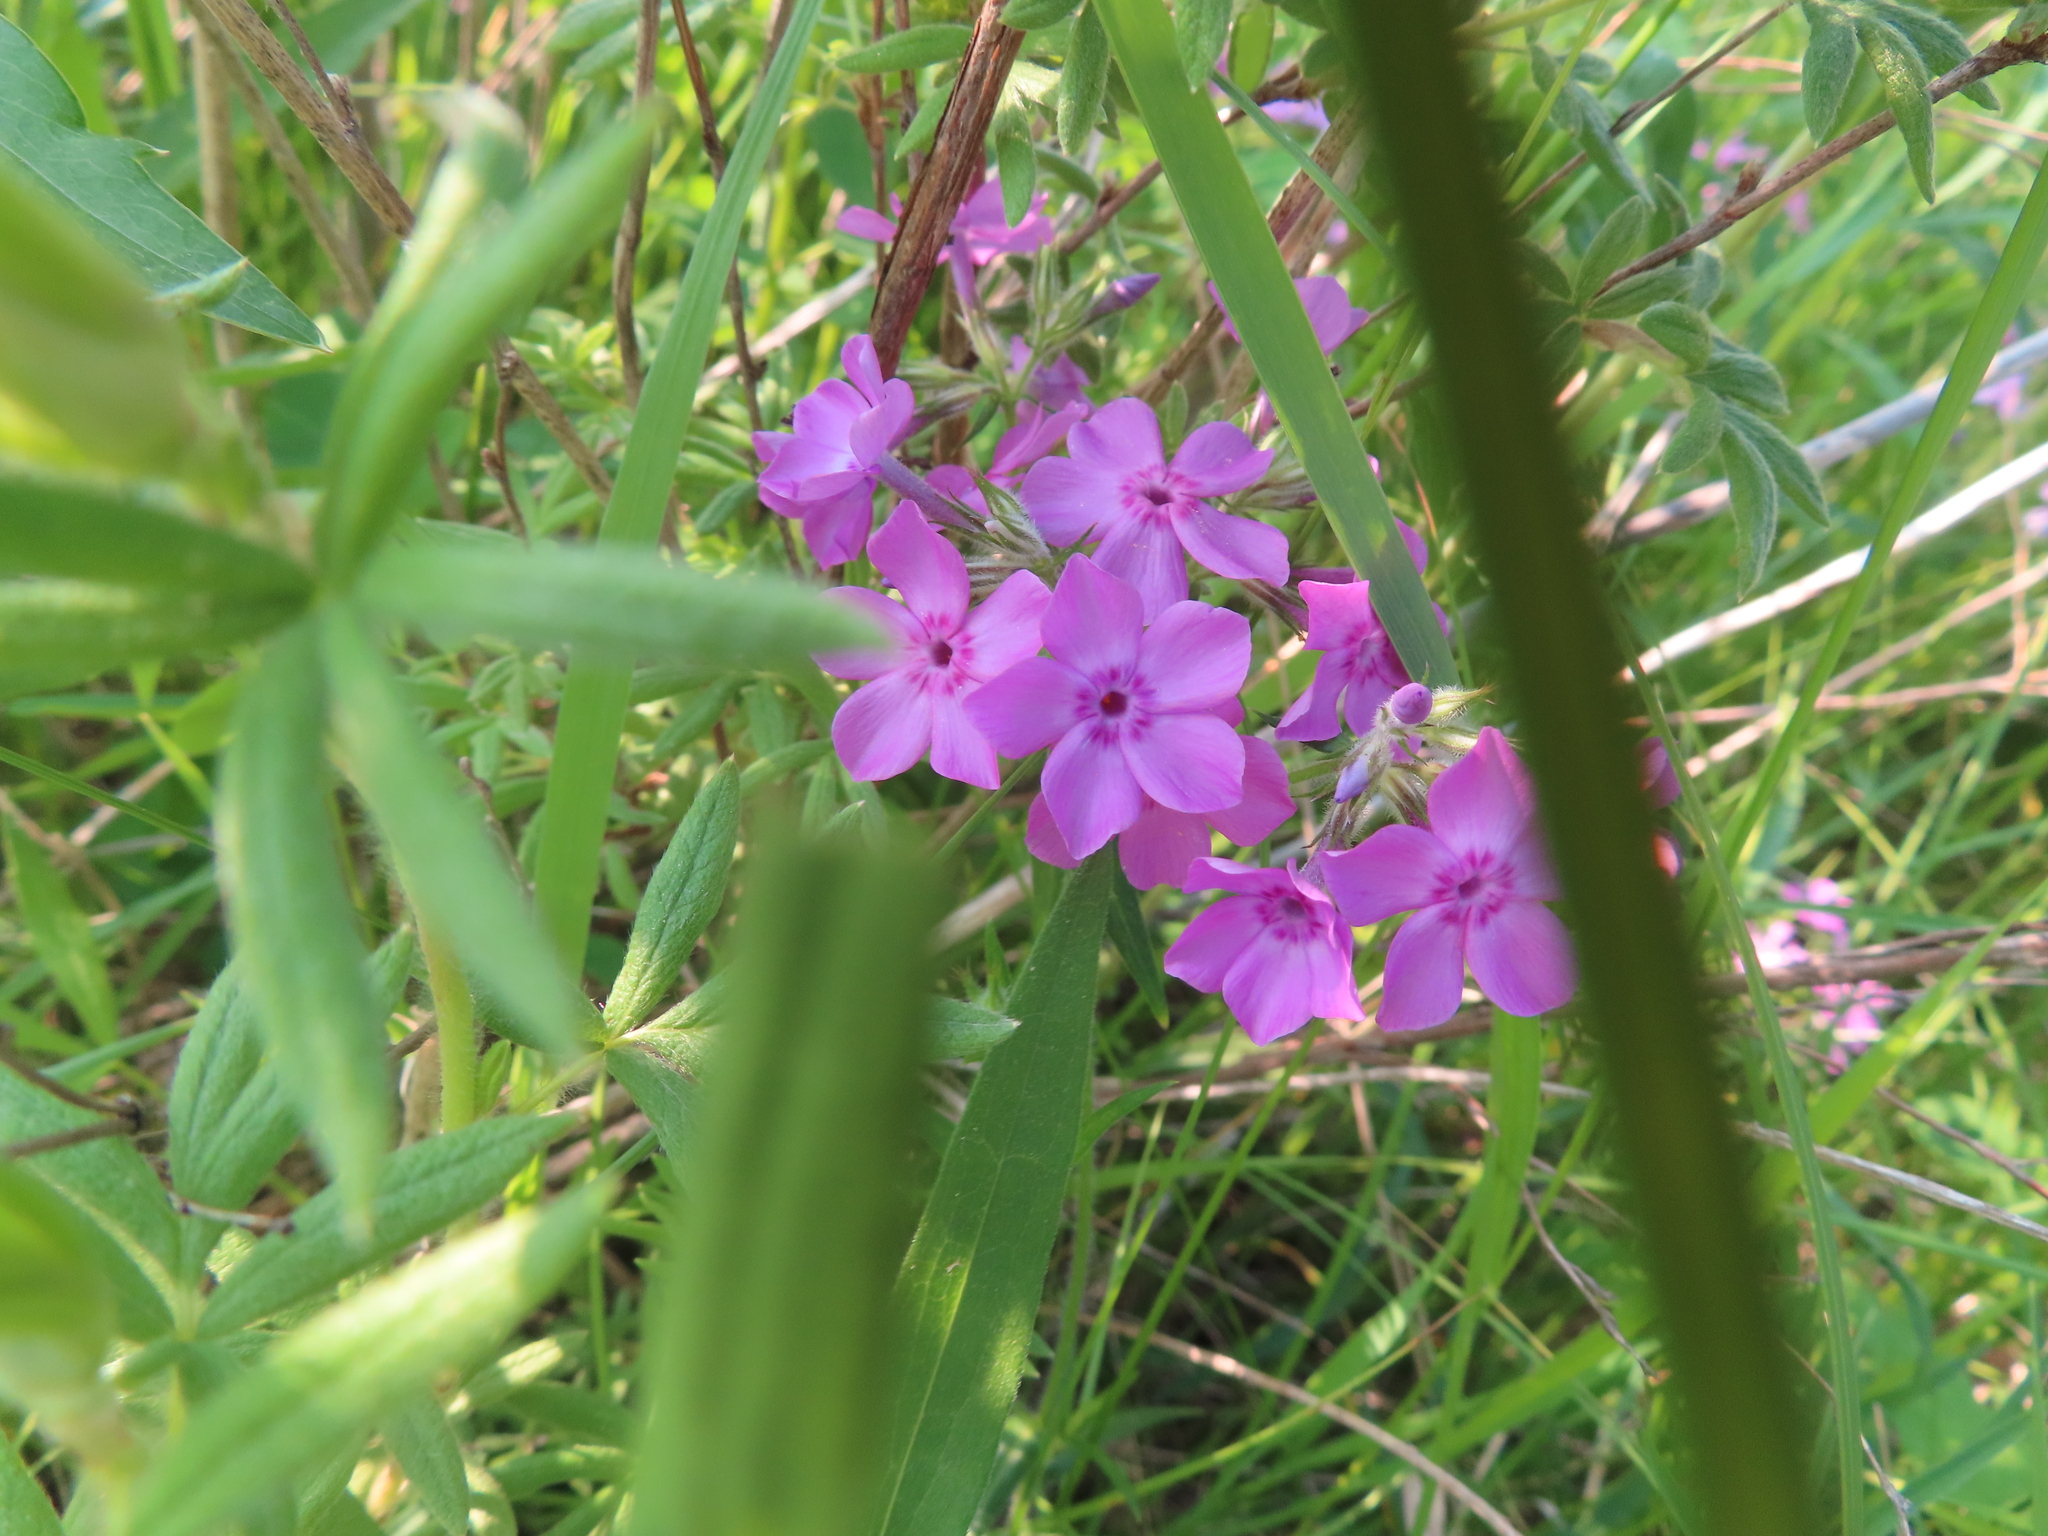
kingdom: Plantae
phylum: Tracheophyta
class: Magnoliopsida
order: Ericales
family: Polemoniaceae
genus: Phlox
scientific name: Phlox pilosa
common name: Prairie phlox
